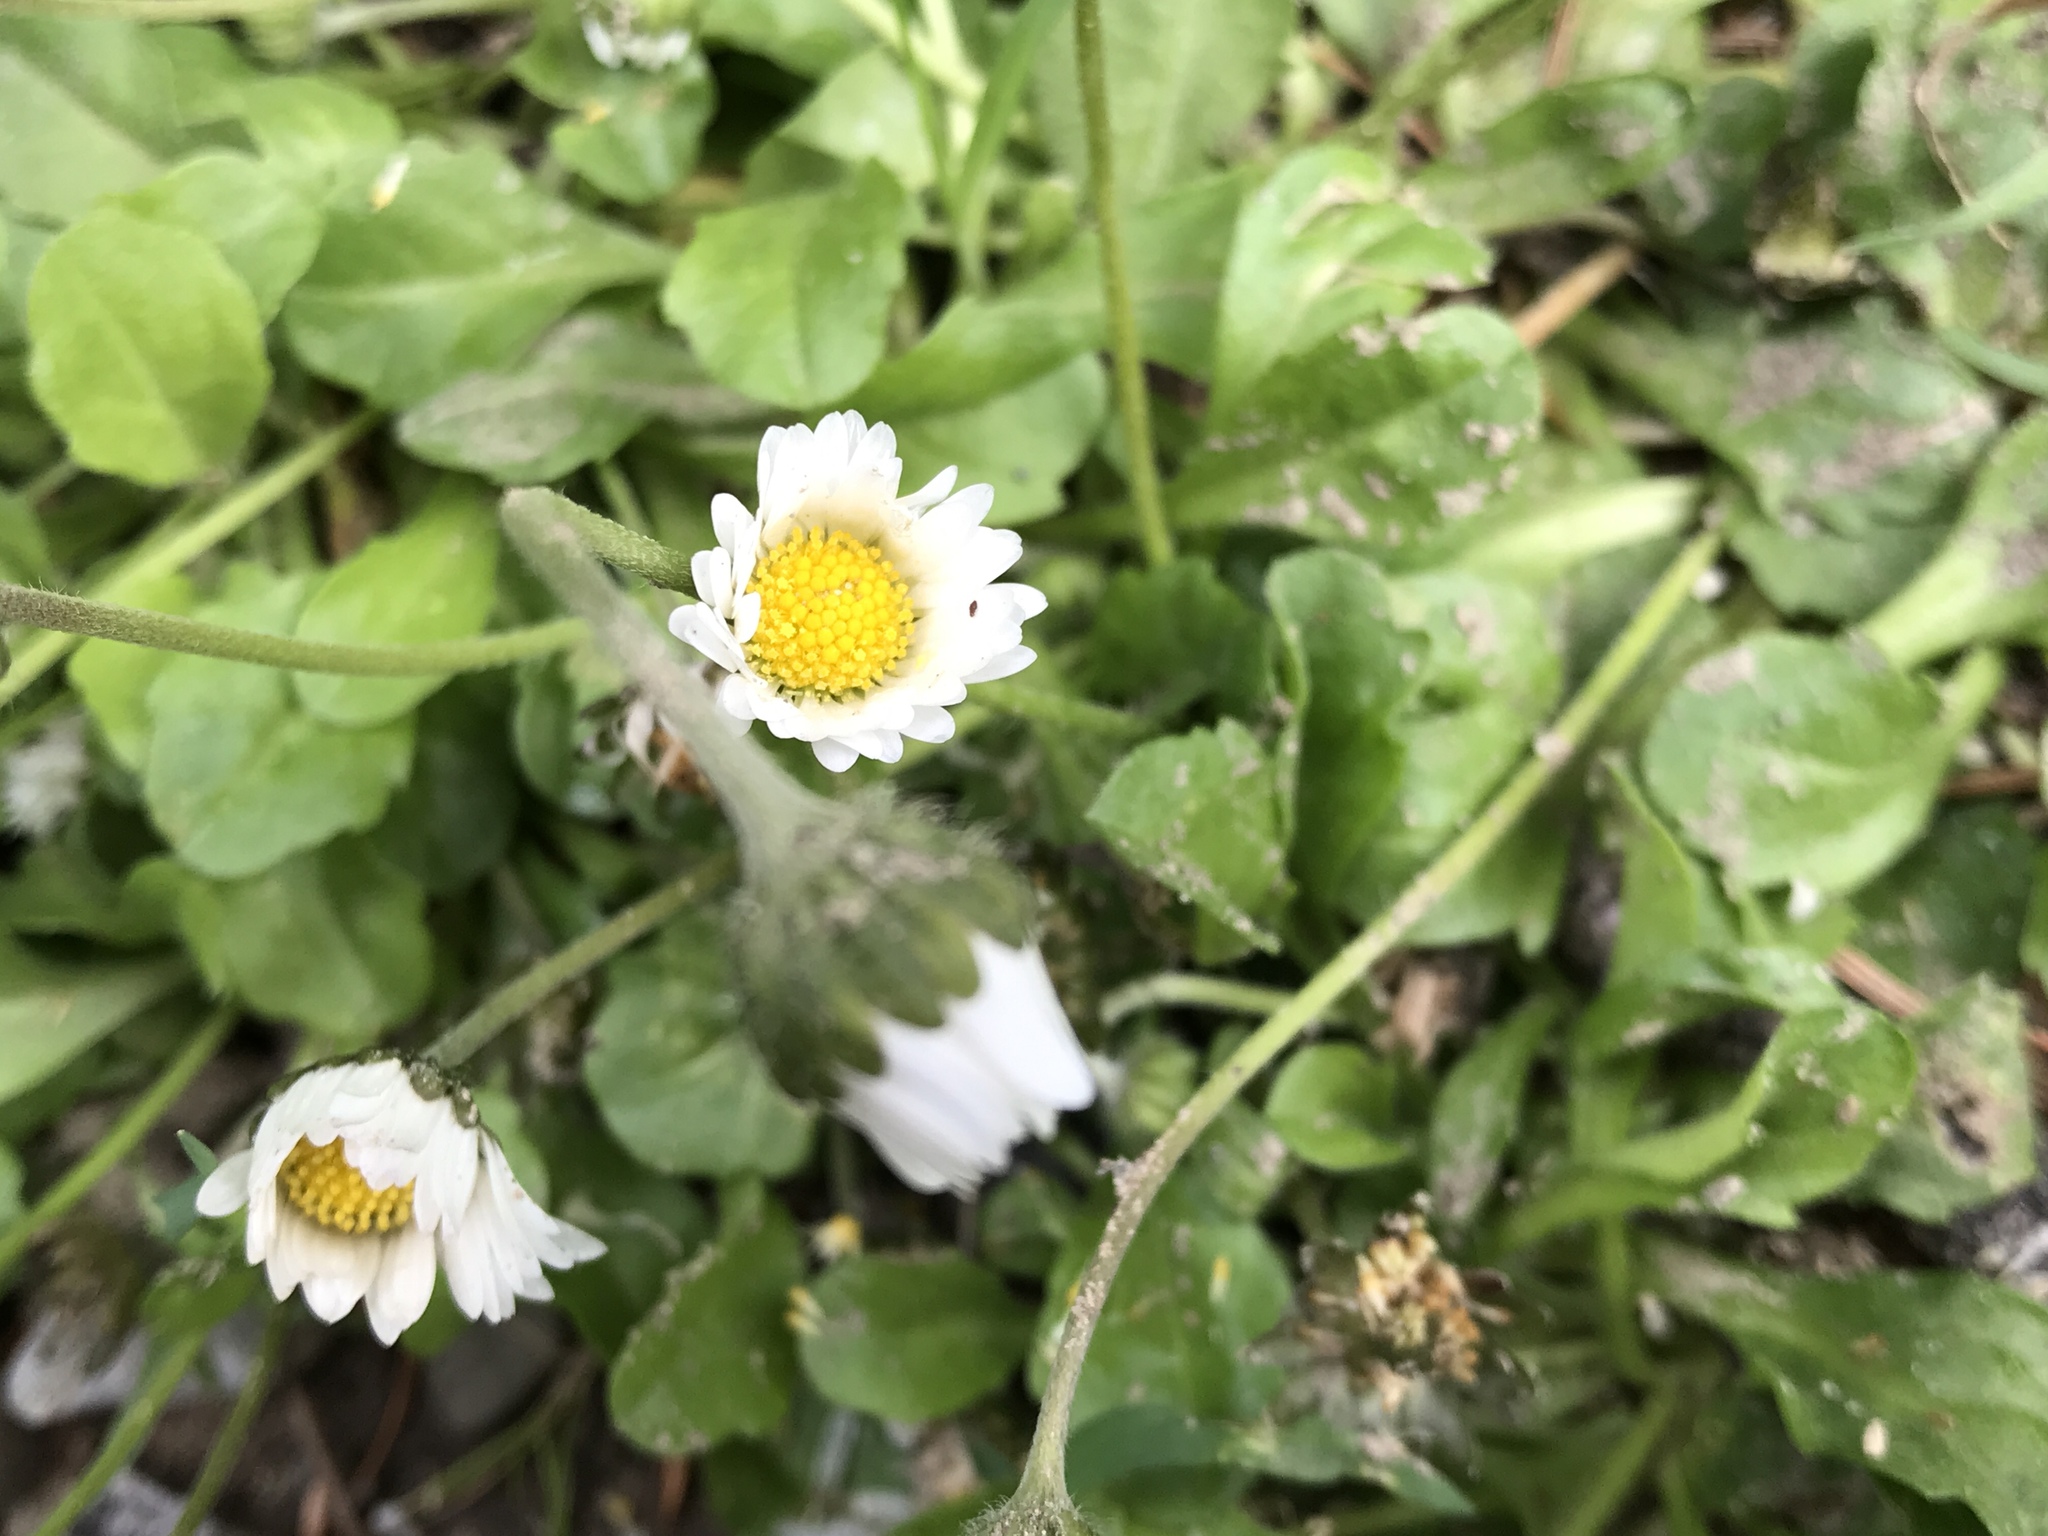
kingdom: Plantae
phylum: Tracheophyta
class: Magnoliopsida
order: Asterales
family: Asteraceae
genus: Bellis
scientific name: Bellis perennis
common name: Lawndaisy
